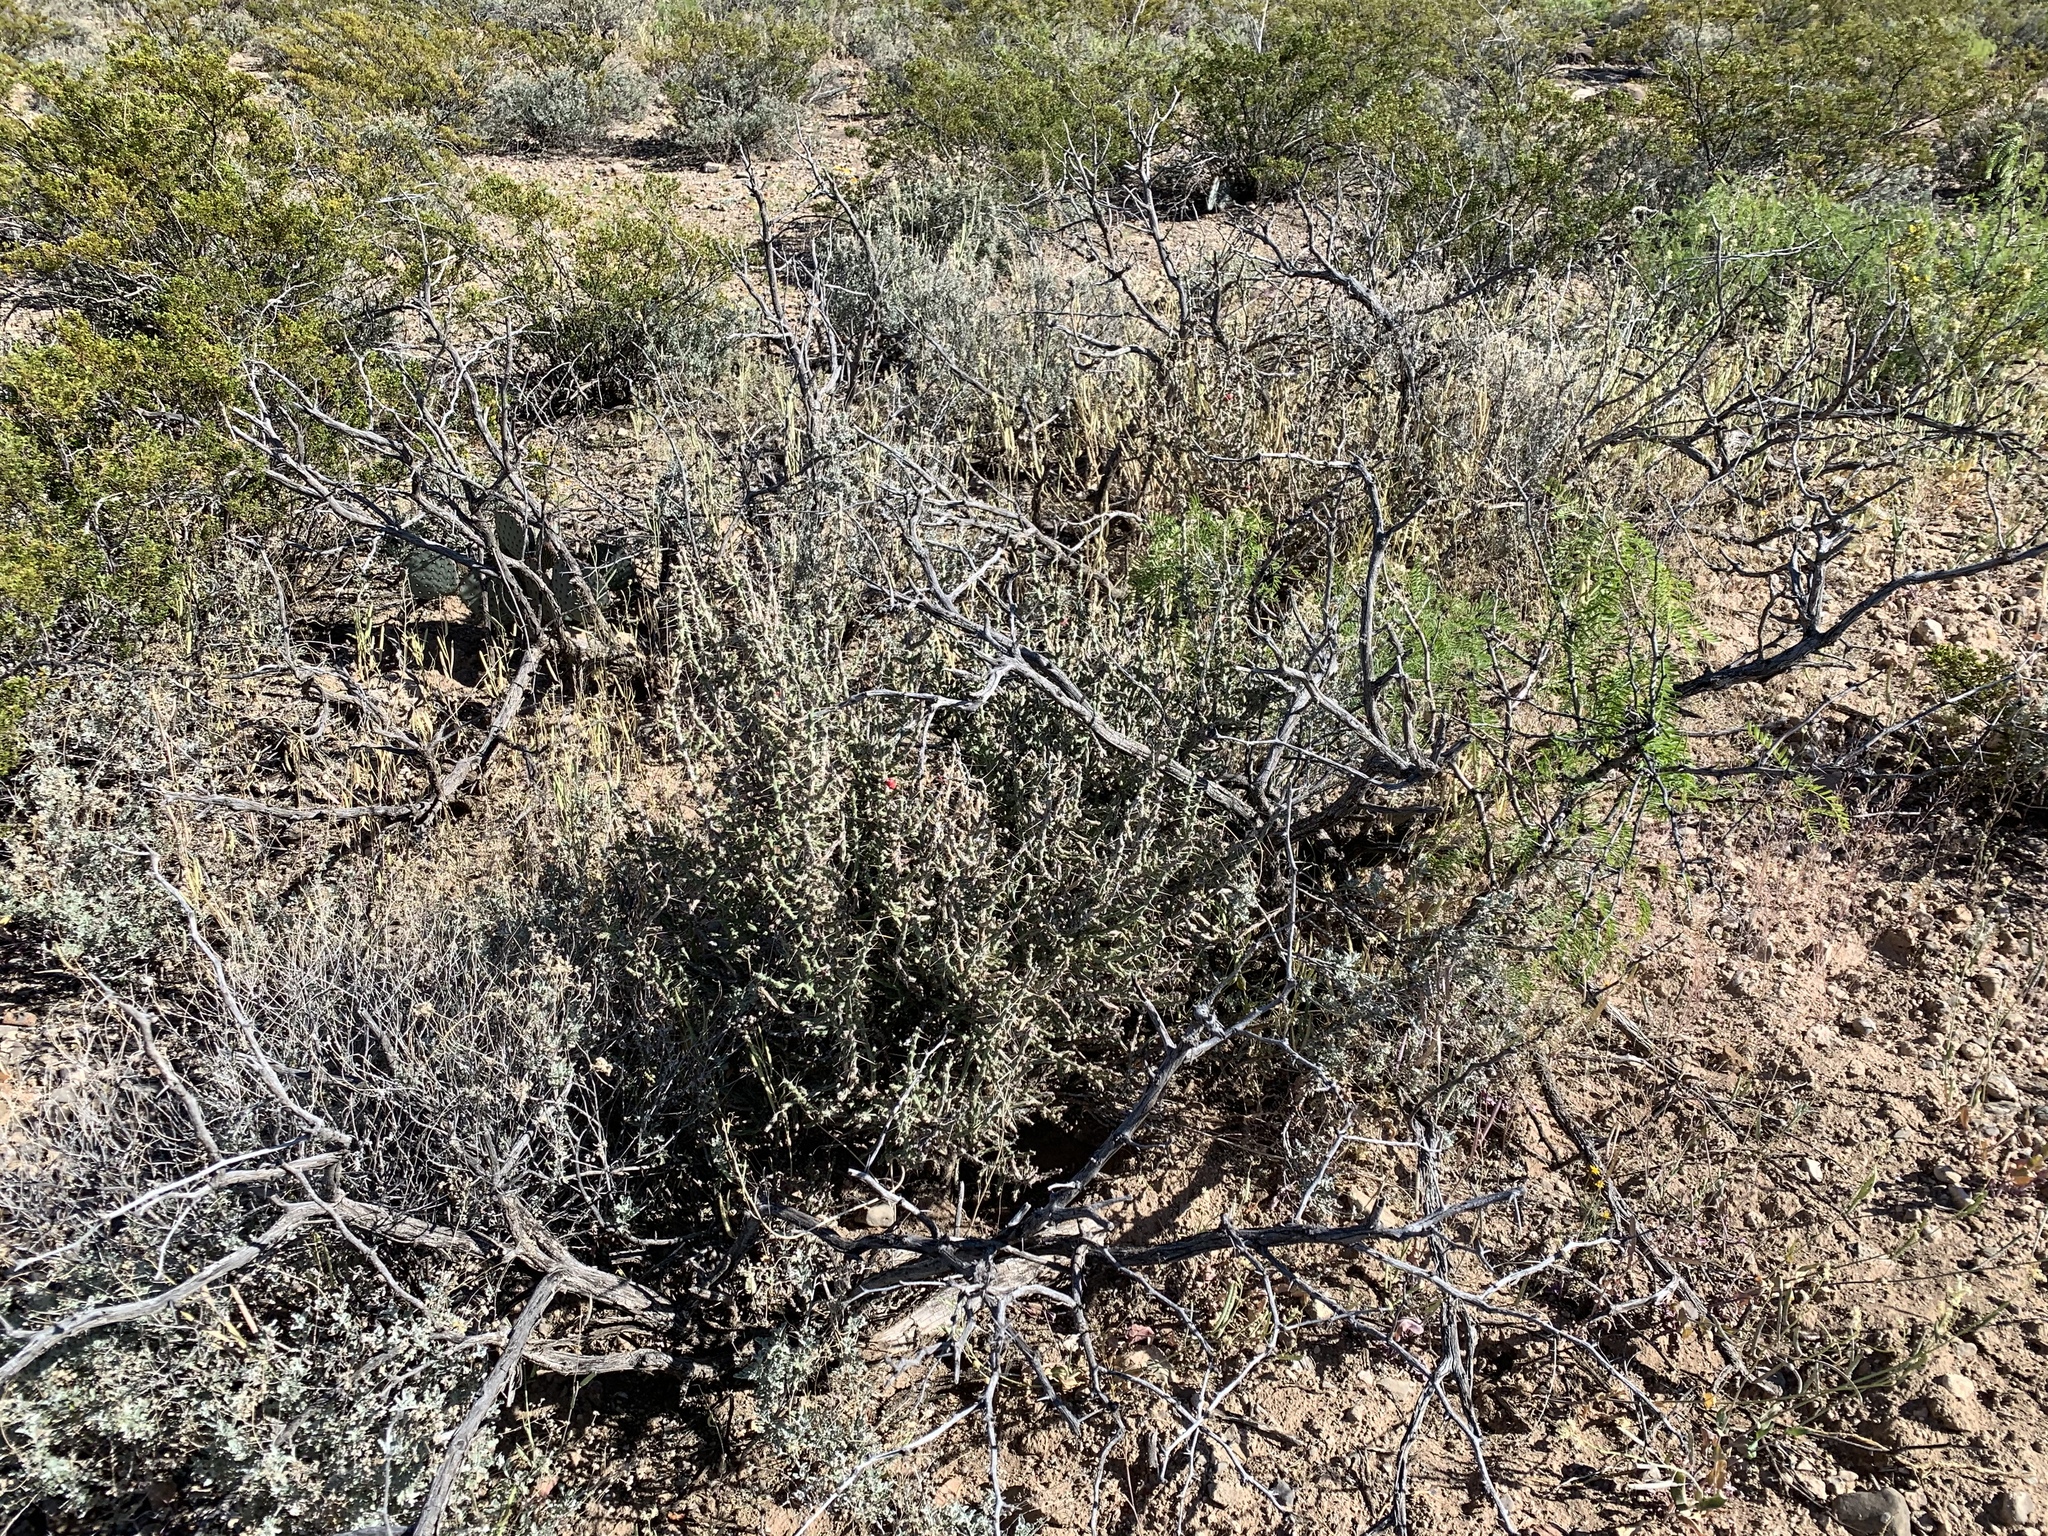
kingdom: Plantae
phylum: Tracheophyta
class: Magnoliopsida
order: Caryophyllales
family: Cactaceae
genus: Cylindropuntia
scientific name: Cylindropuntia leptocaulis
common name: Christmas cactus
